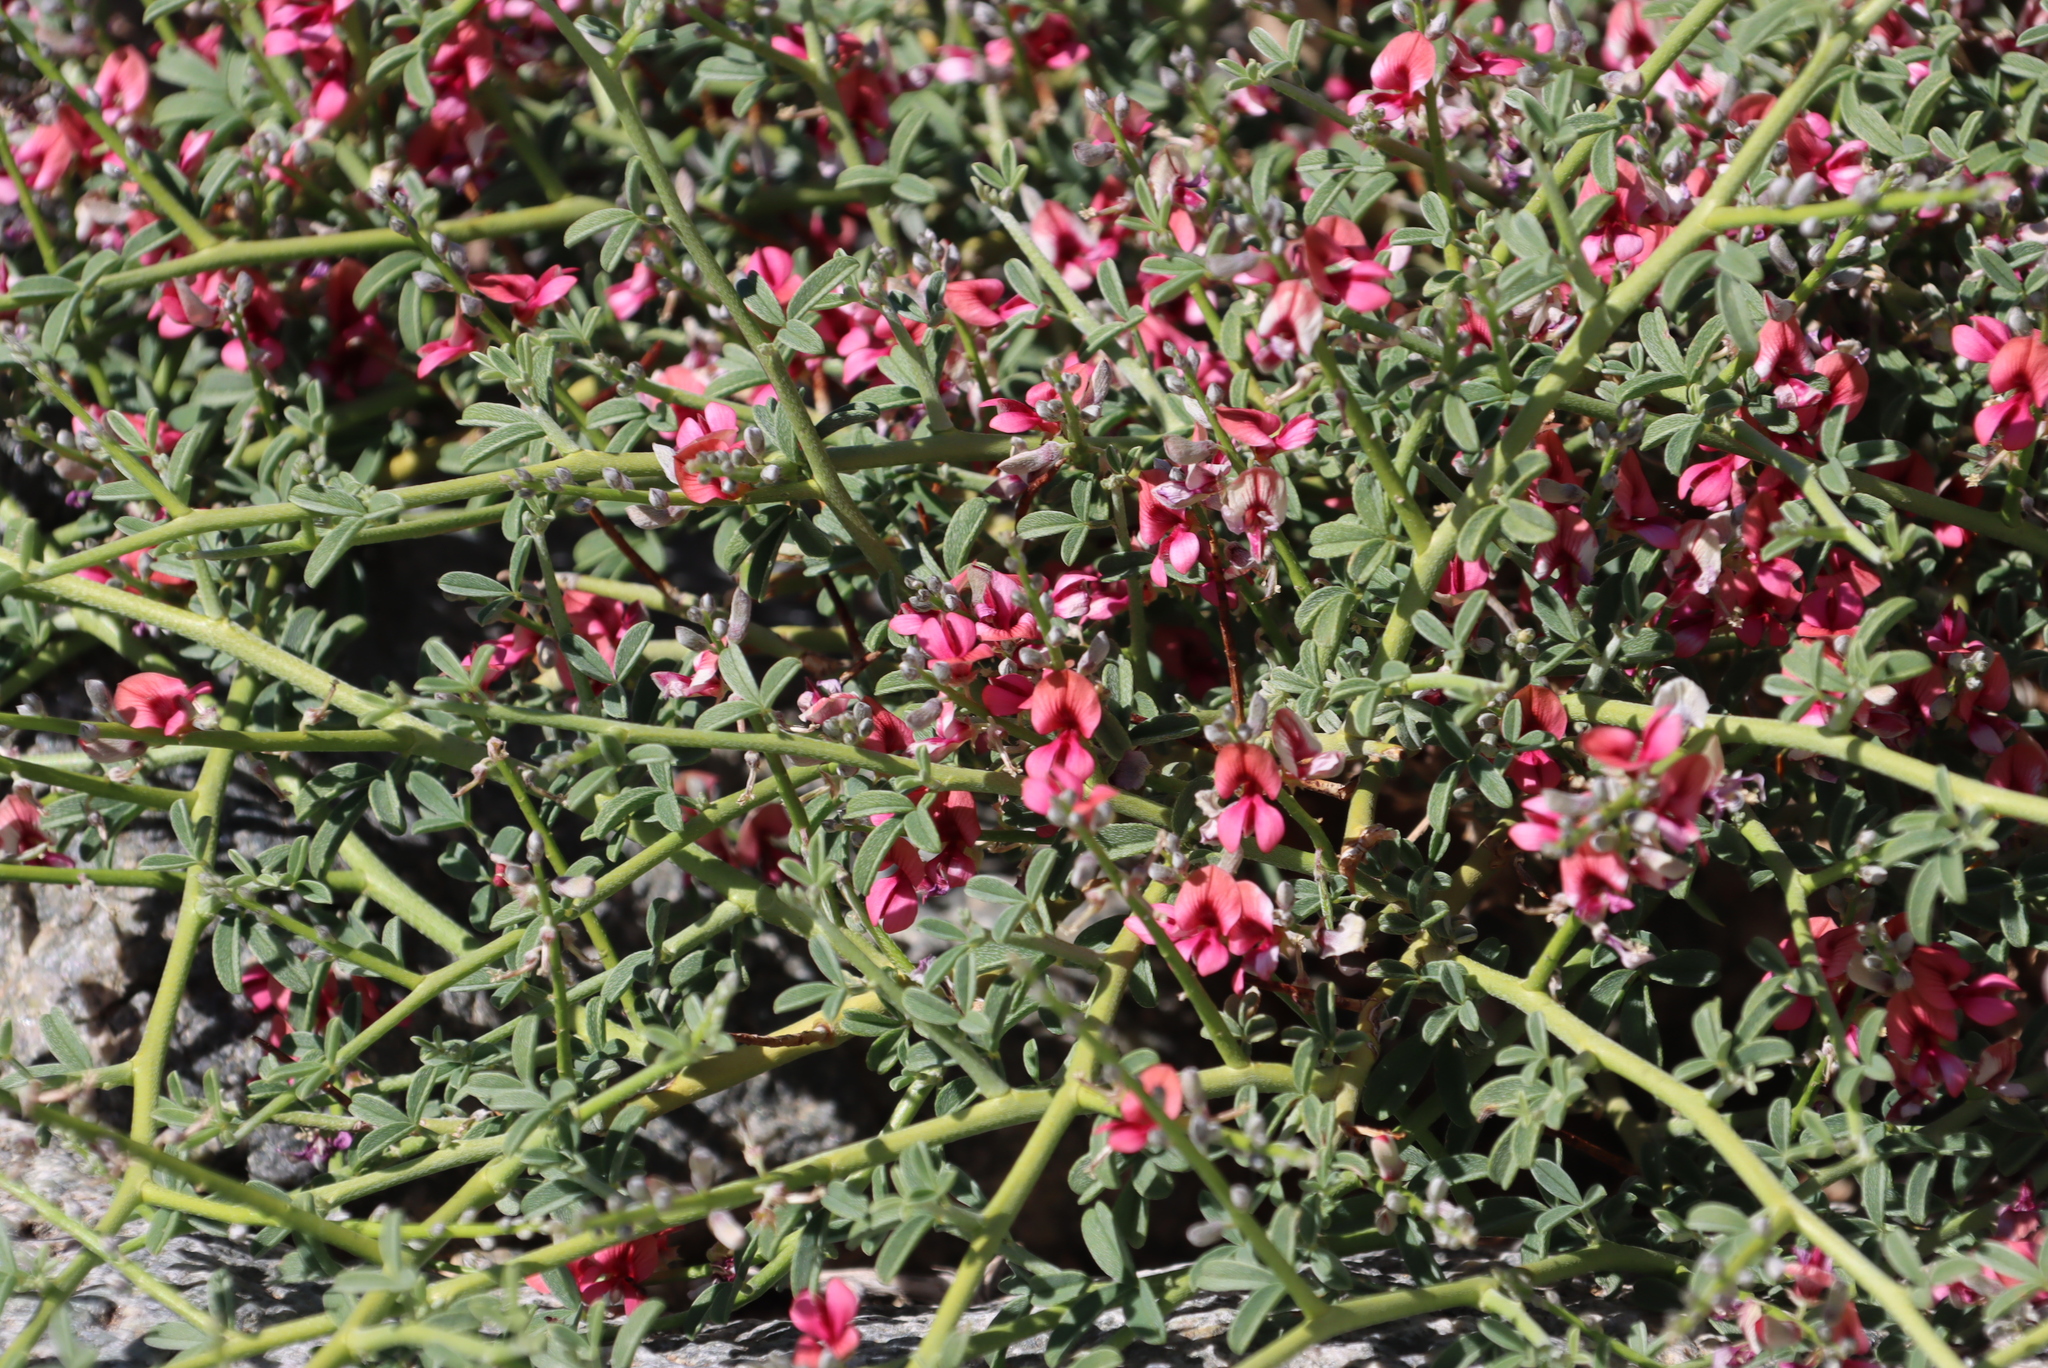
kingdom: Plantae
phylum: Tracheophyta
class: Magnoliopsida
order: Fabales
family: Fabaceae
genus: Indigofera
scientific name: Indigofera pungens
